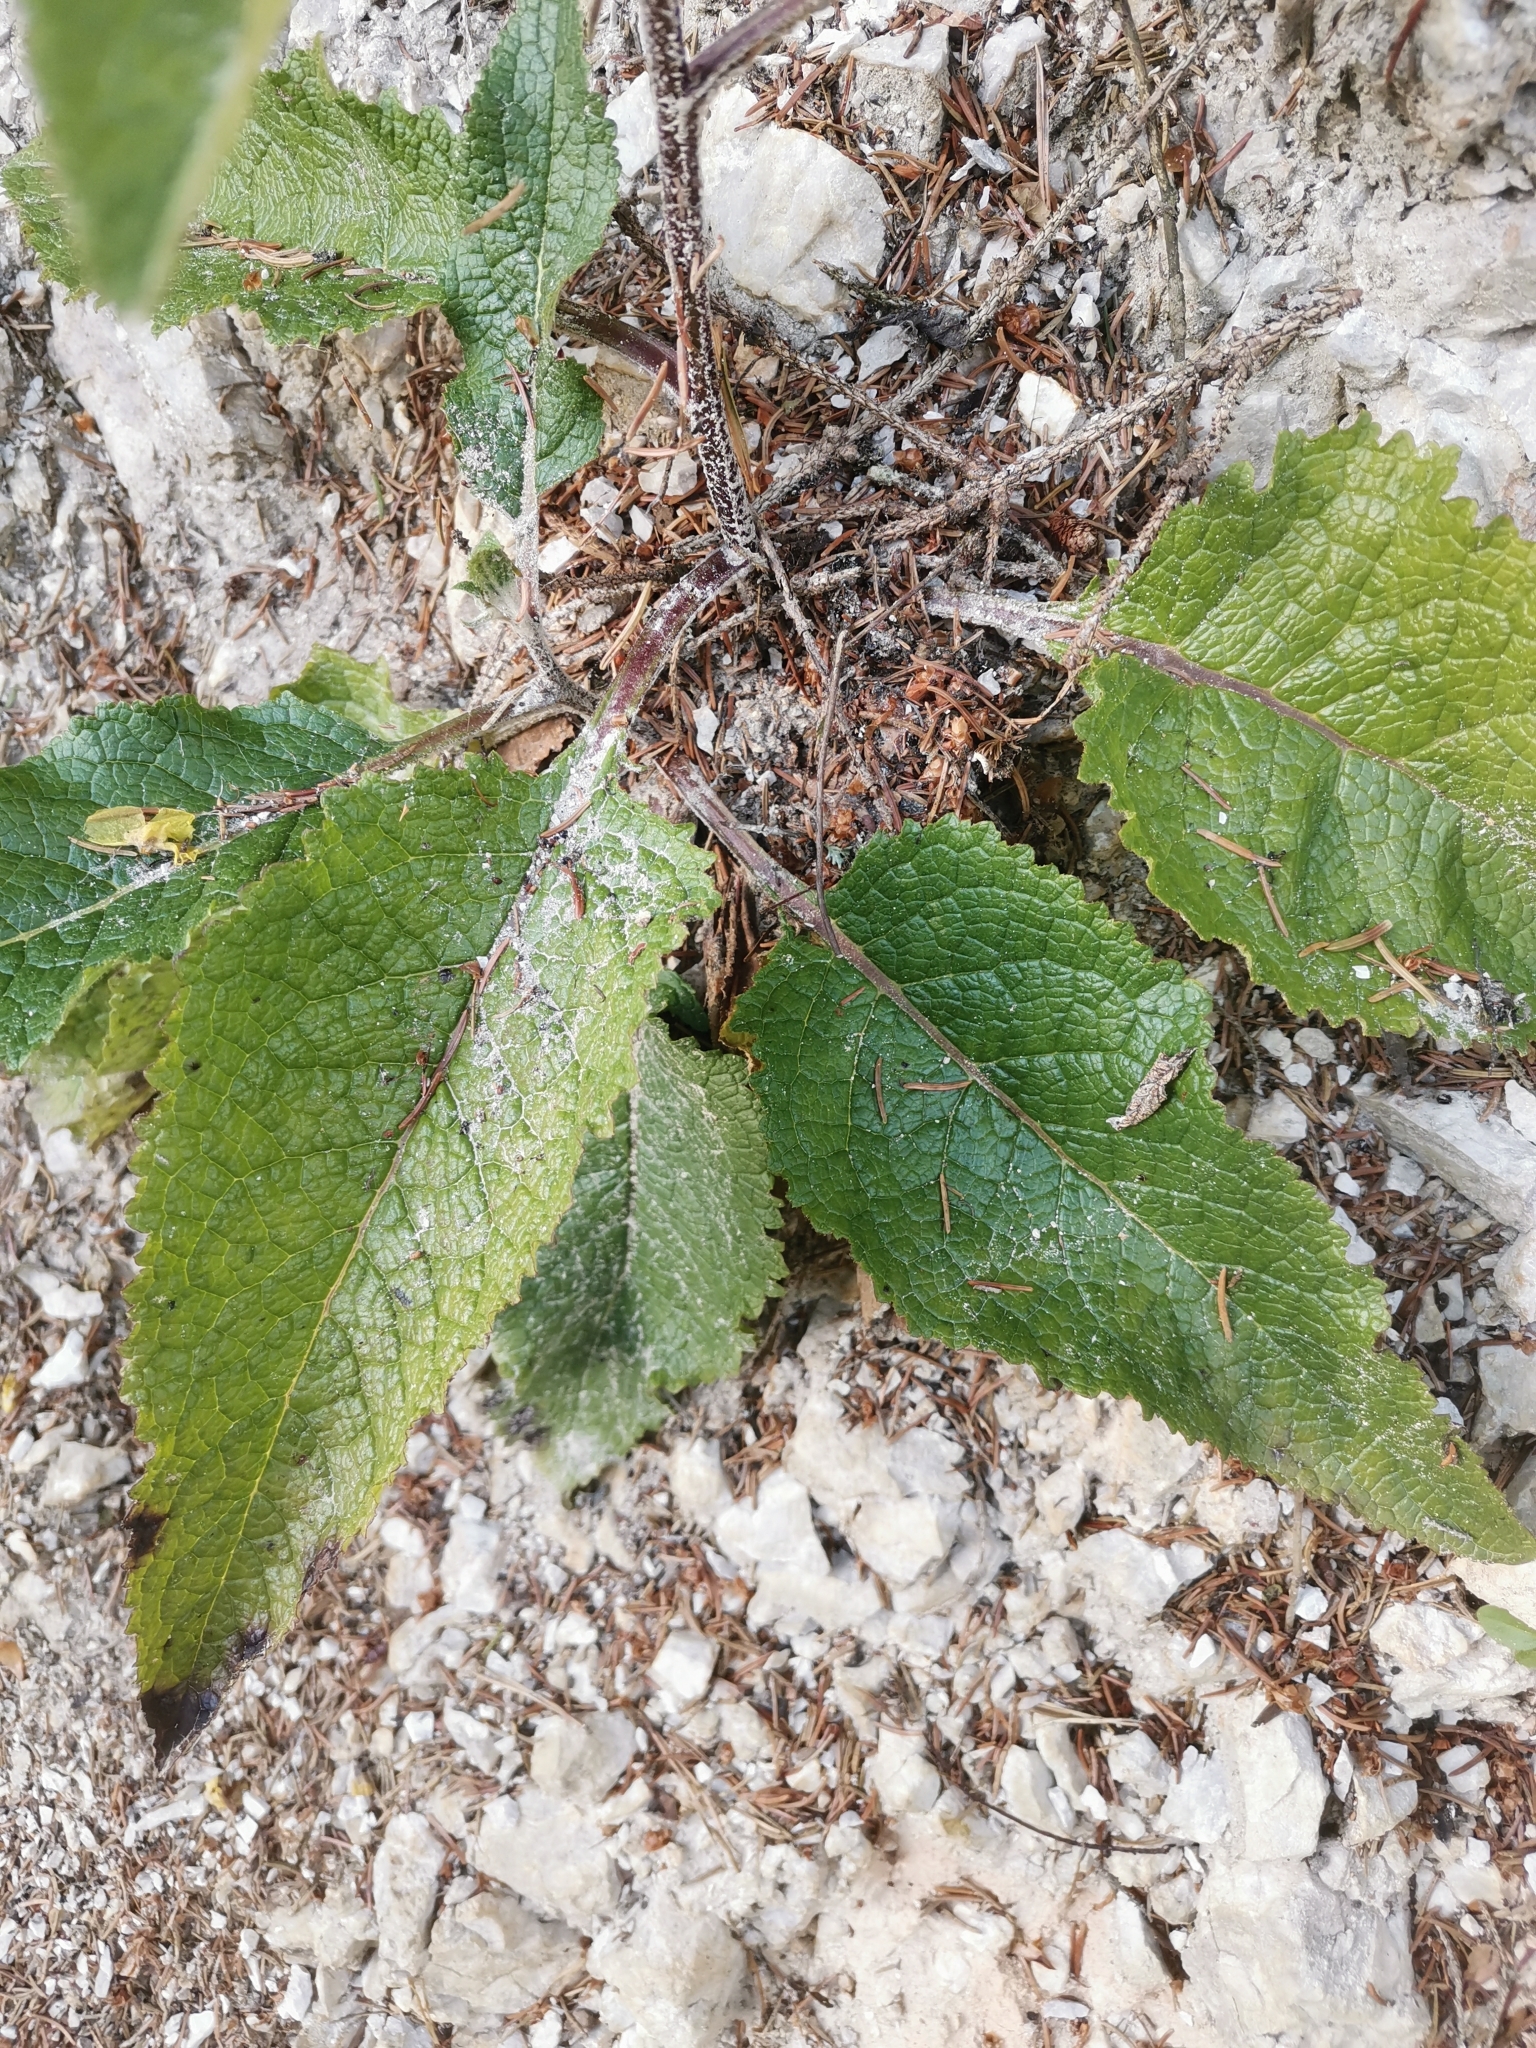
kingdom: Plantae
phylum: Tracheophyta
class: Magnoliopsida
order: Lamiales
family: Scrophulariaceae
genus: Verbascum
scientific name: Verbascum chaixii
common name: Nettle-leaved mullein
